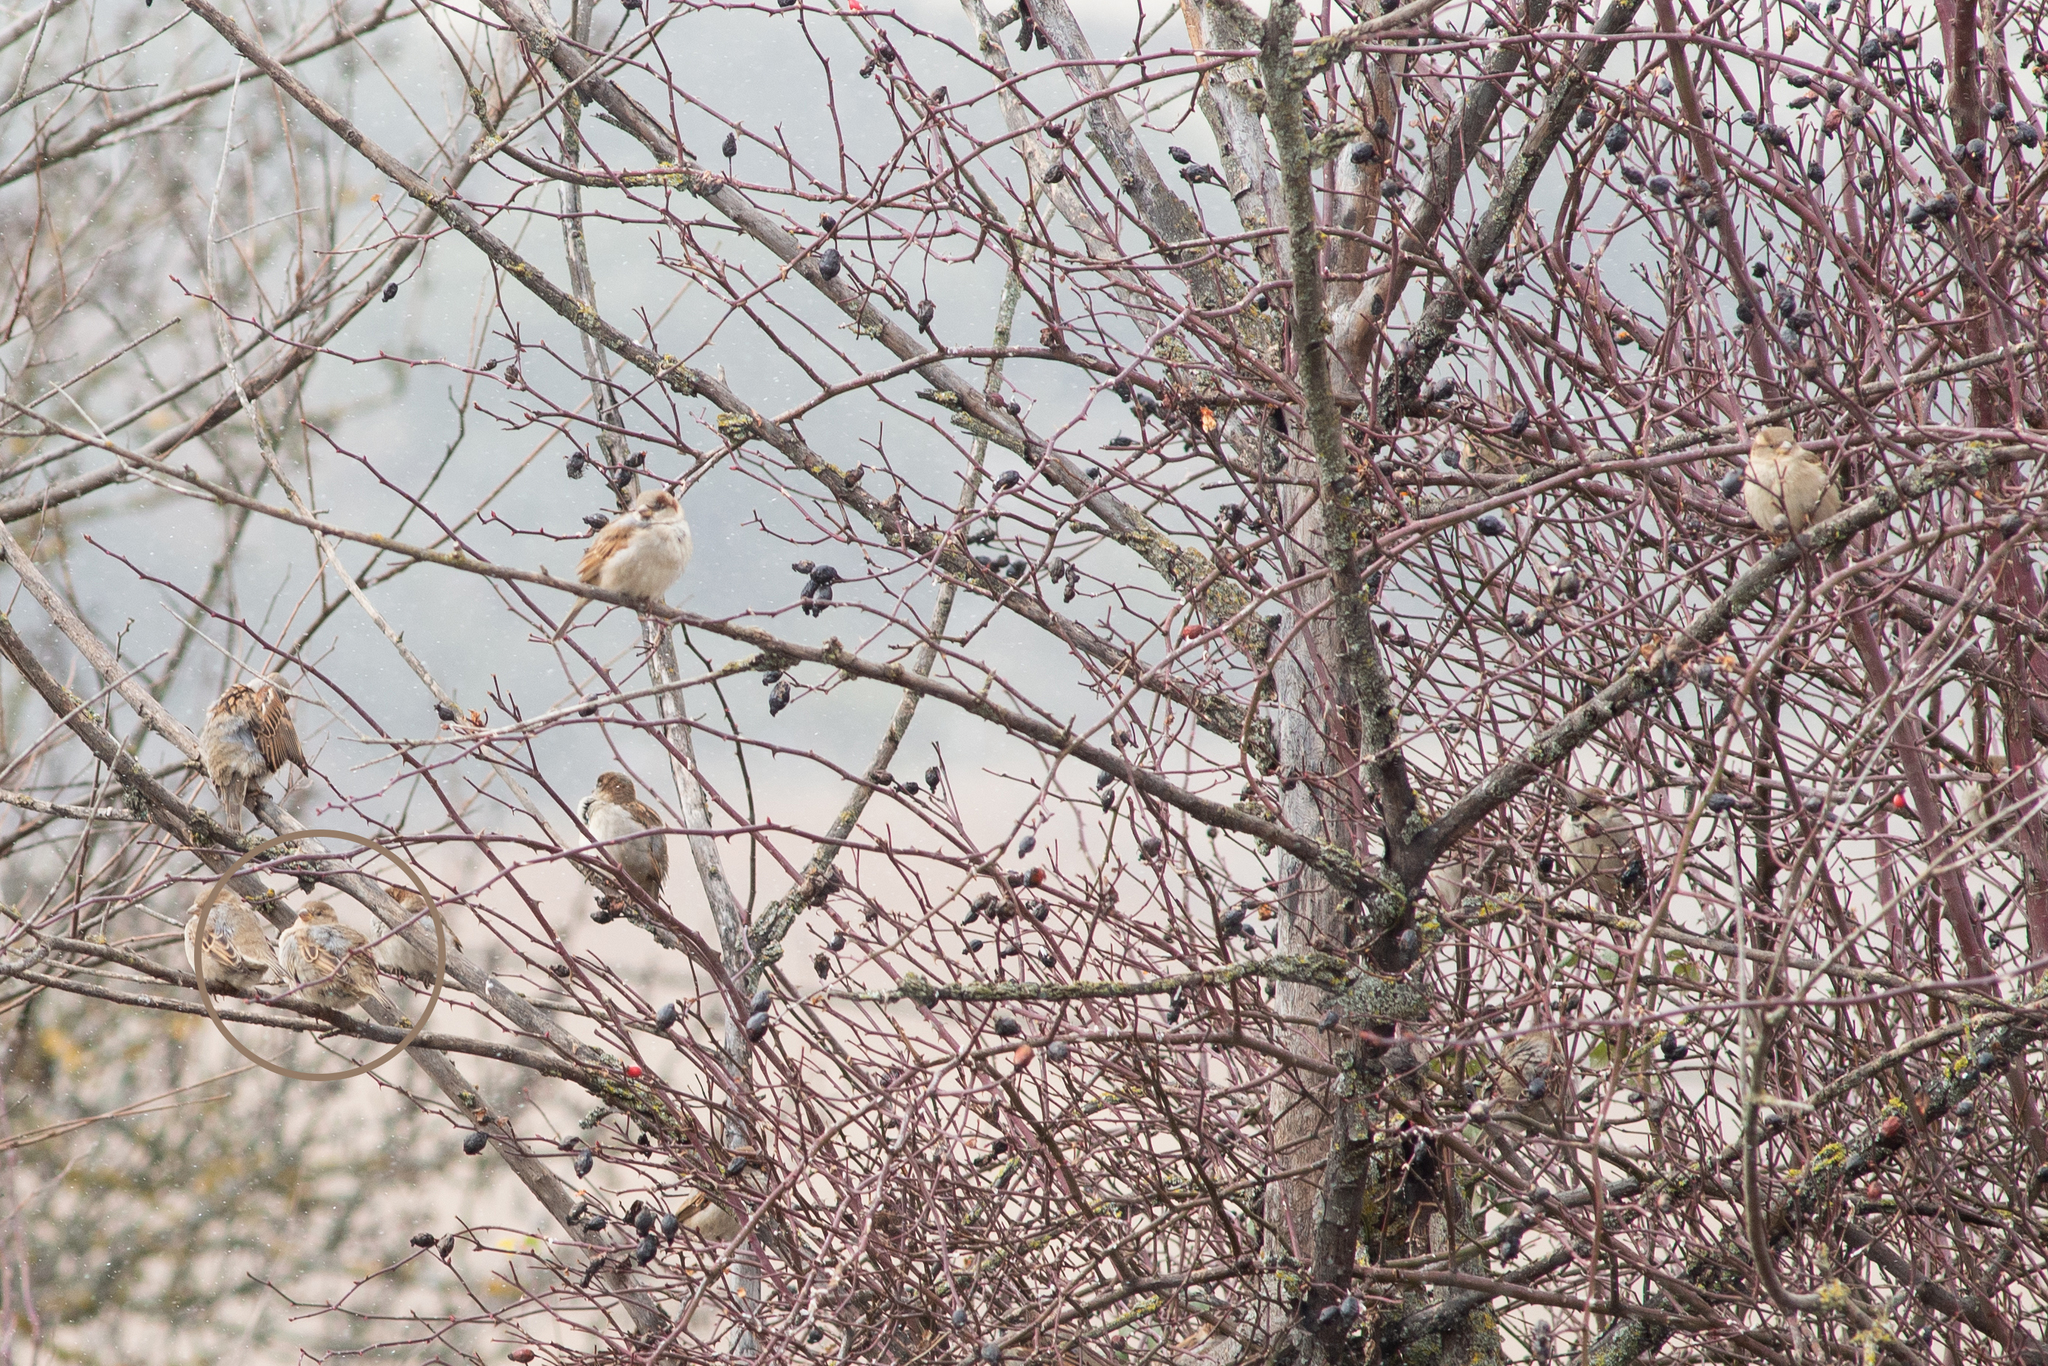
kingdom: Animalia
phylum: Chordata
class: Aves
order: Passeriformes
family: Passeridae
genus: Passer
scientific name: Passer domesticus
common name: House sparrow
